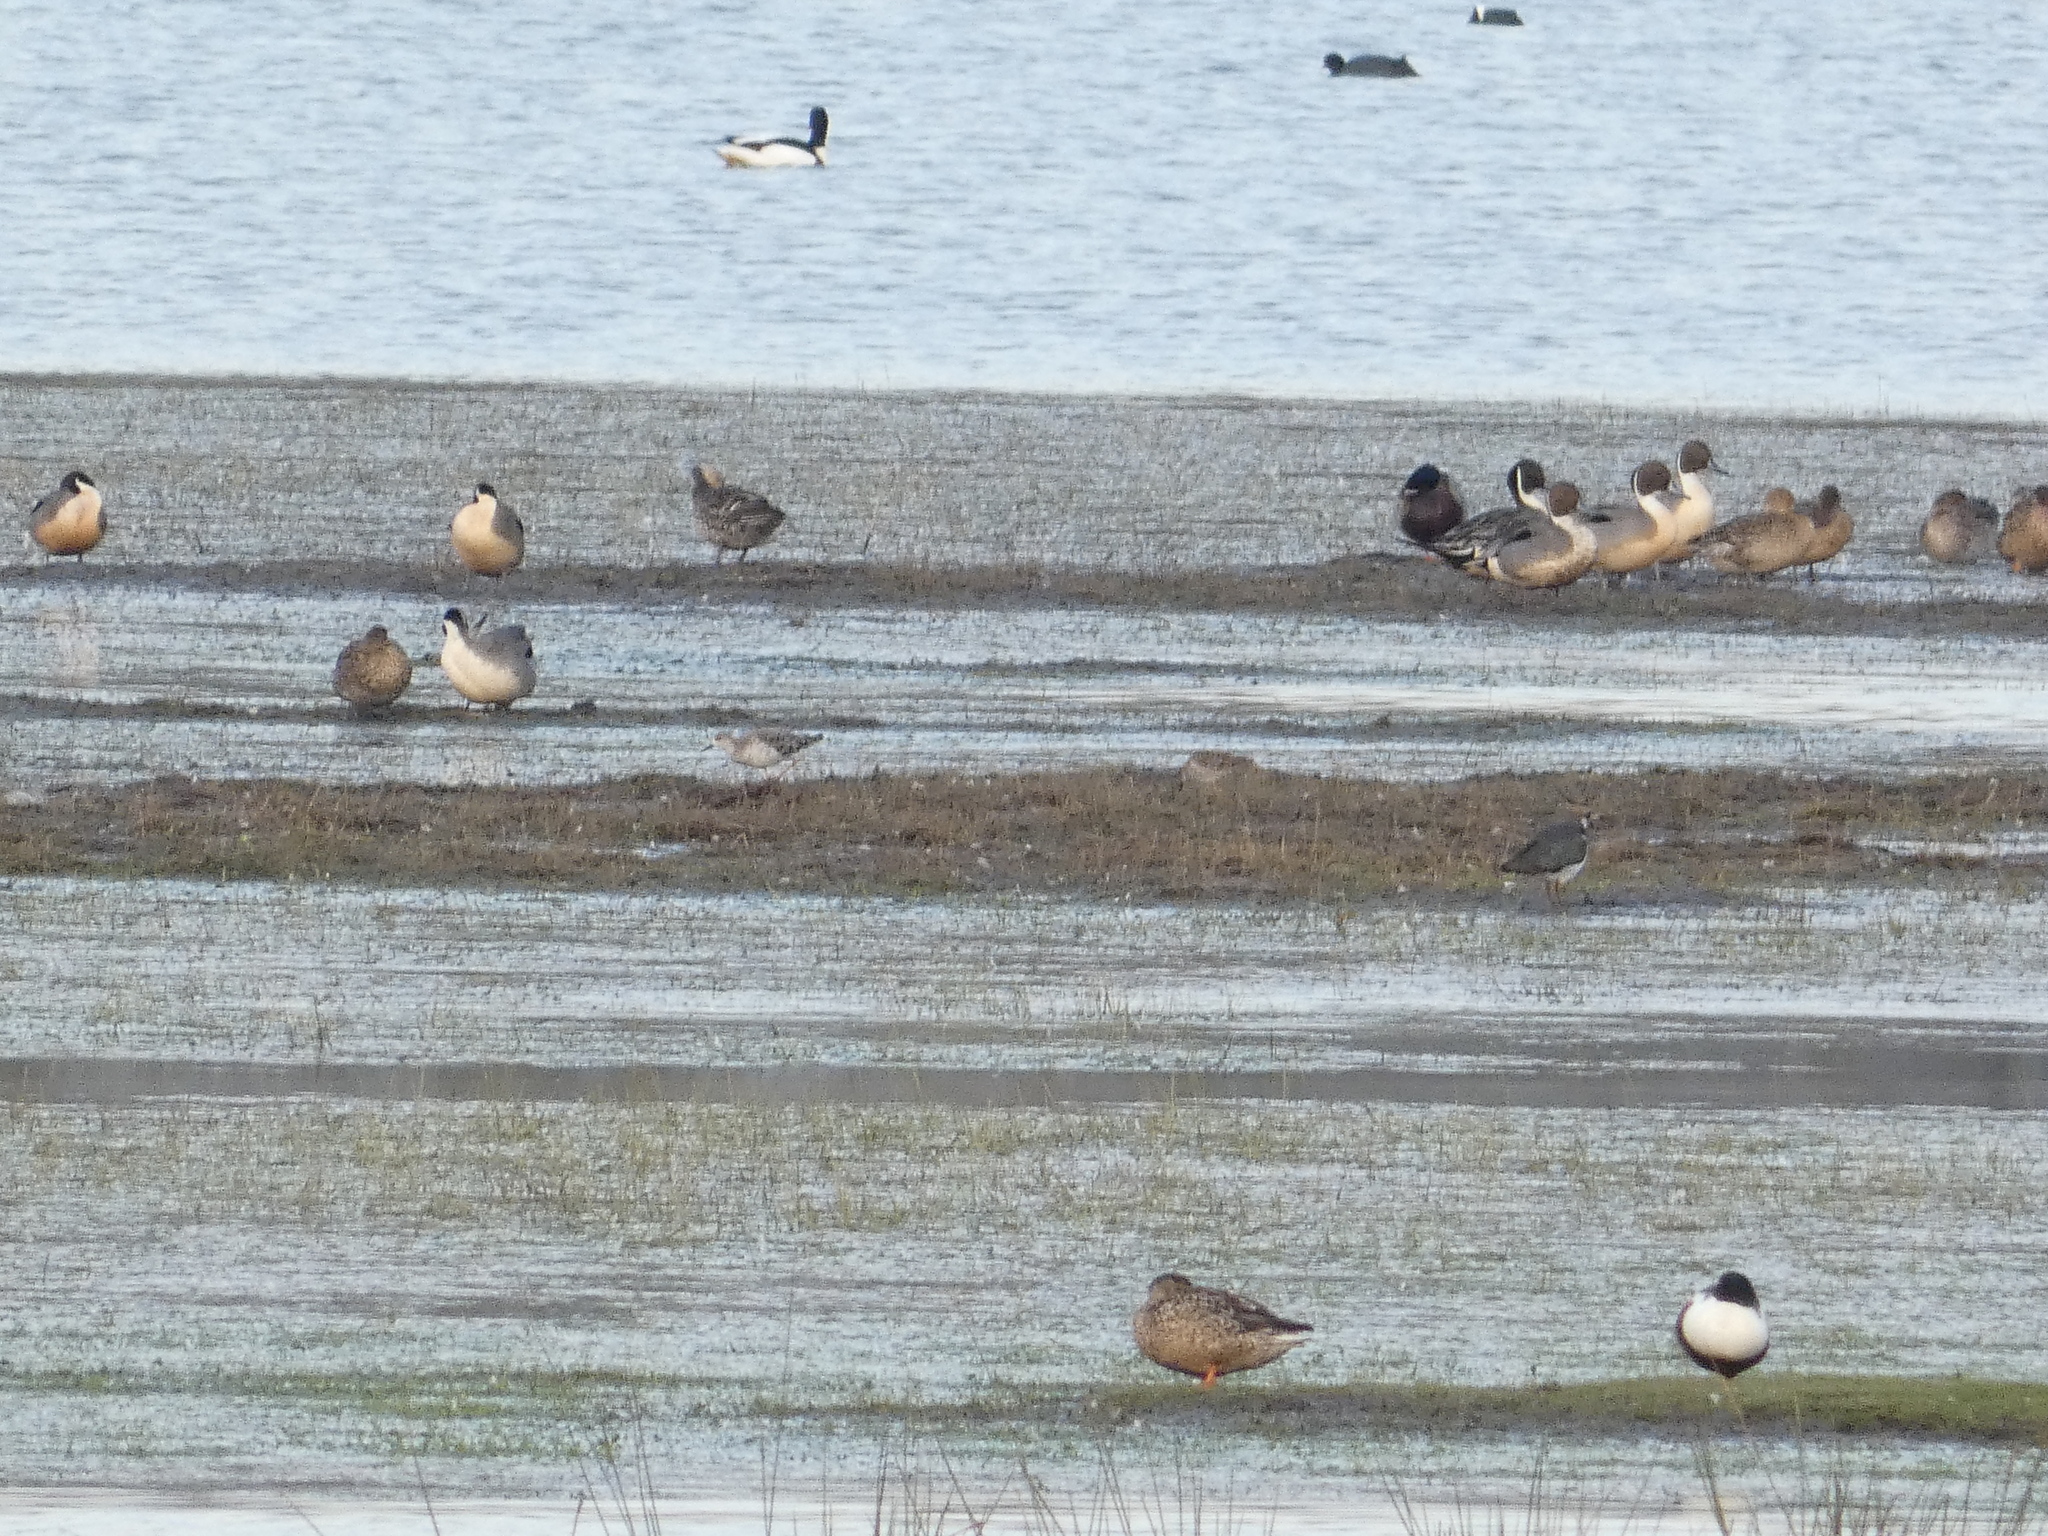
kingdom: Animalia
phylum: Chordata
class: Aves
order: Charadriiformes
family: Scolopacidae
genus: Calidris
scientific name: Calidris pugnax
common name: Ruff
